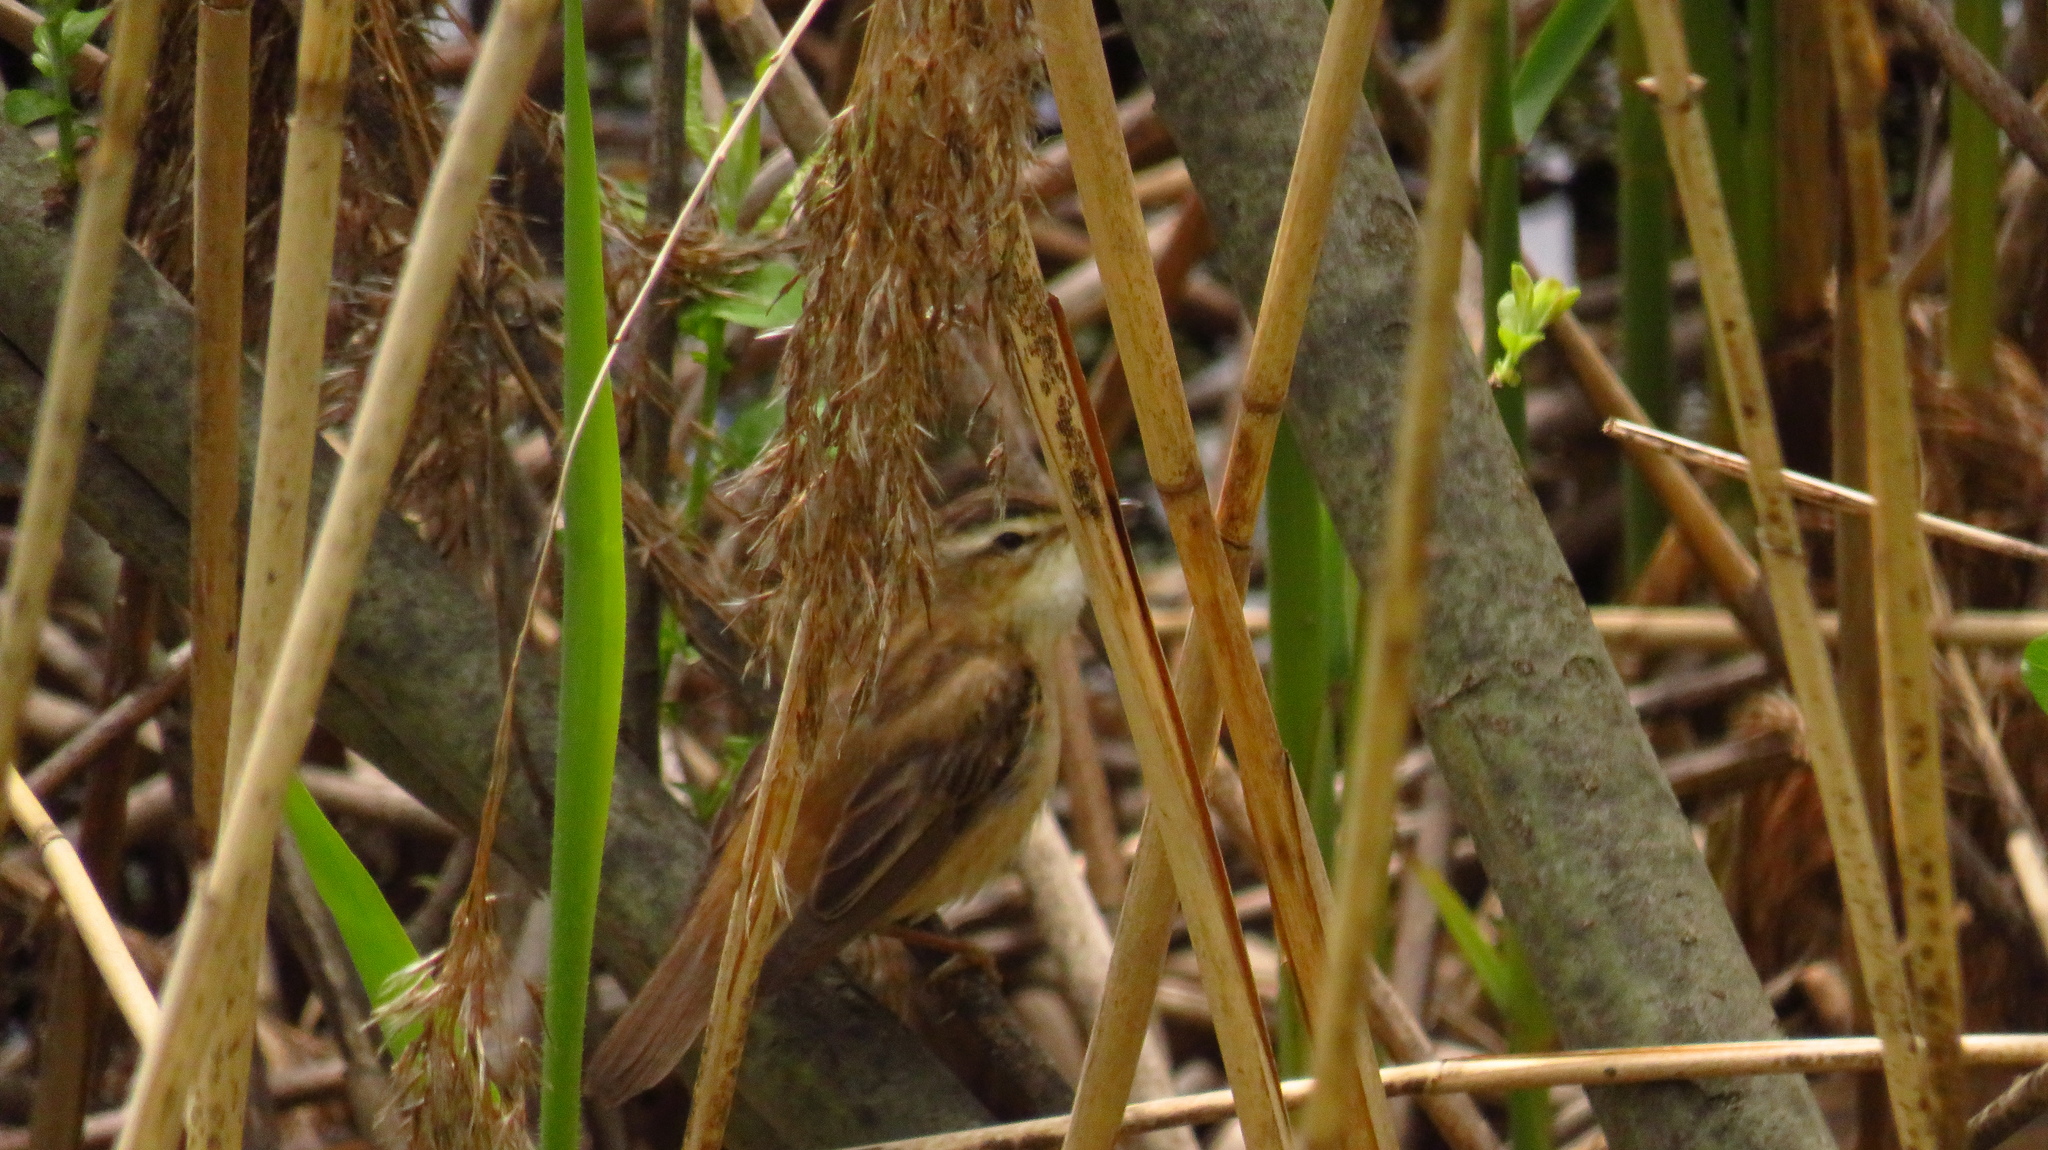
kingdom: Animalia
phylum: Chordata
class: Aves
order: Passeriformes
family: Acrocephalidae
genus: Acrocephalus
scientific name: Acrocephalus schoenobaenus
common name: Sedge warbler
